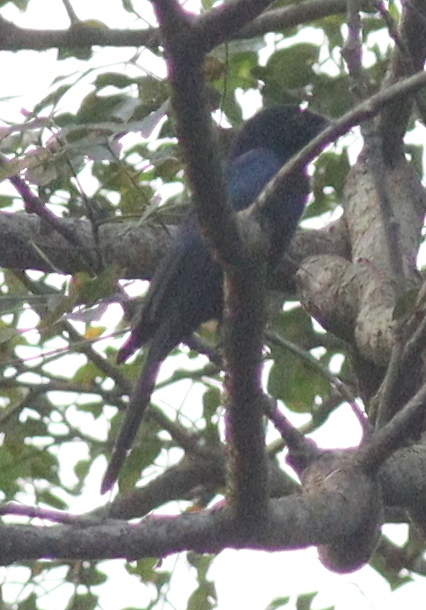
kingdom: Animalia
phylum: Chordata
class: Aves
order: Passeriformes
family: Dicruridae
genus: Dicrurus
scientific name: Dicrurus modestus
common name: Velvet-mantled drongo
